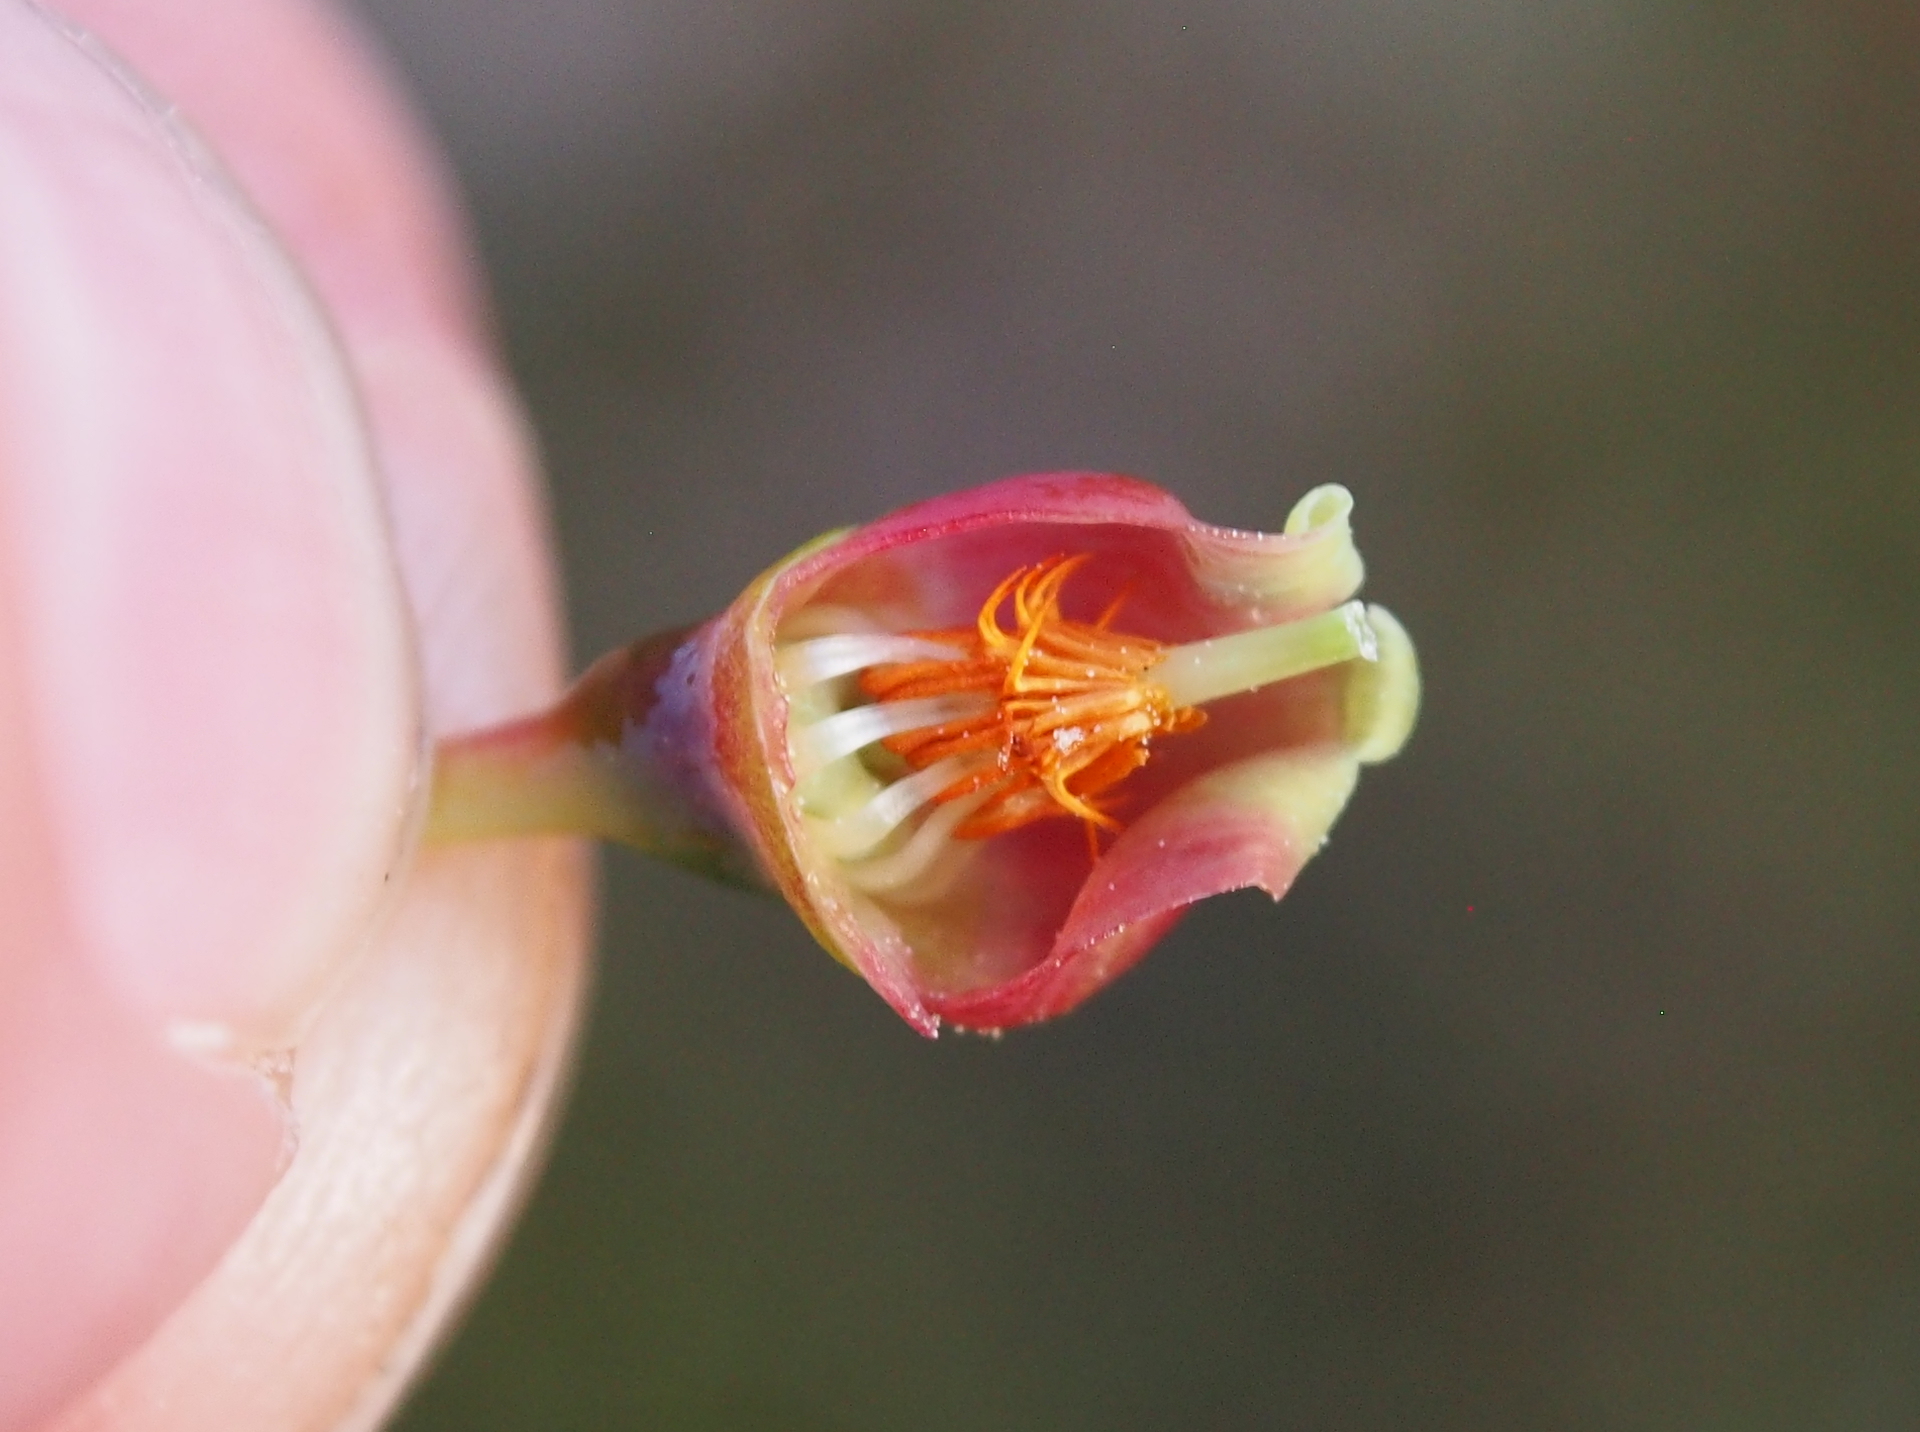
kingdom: Plantae
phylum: Tracheophyta
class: Magnoliopsida
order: Ericales
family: Ericaceae
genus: Vaccinium
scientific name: Vaccinium myrtillus
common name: Bilberry
